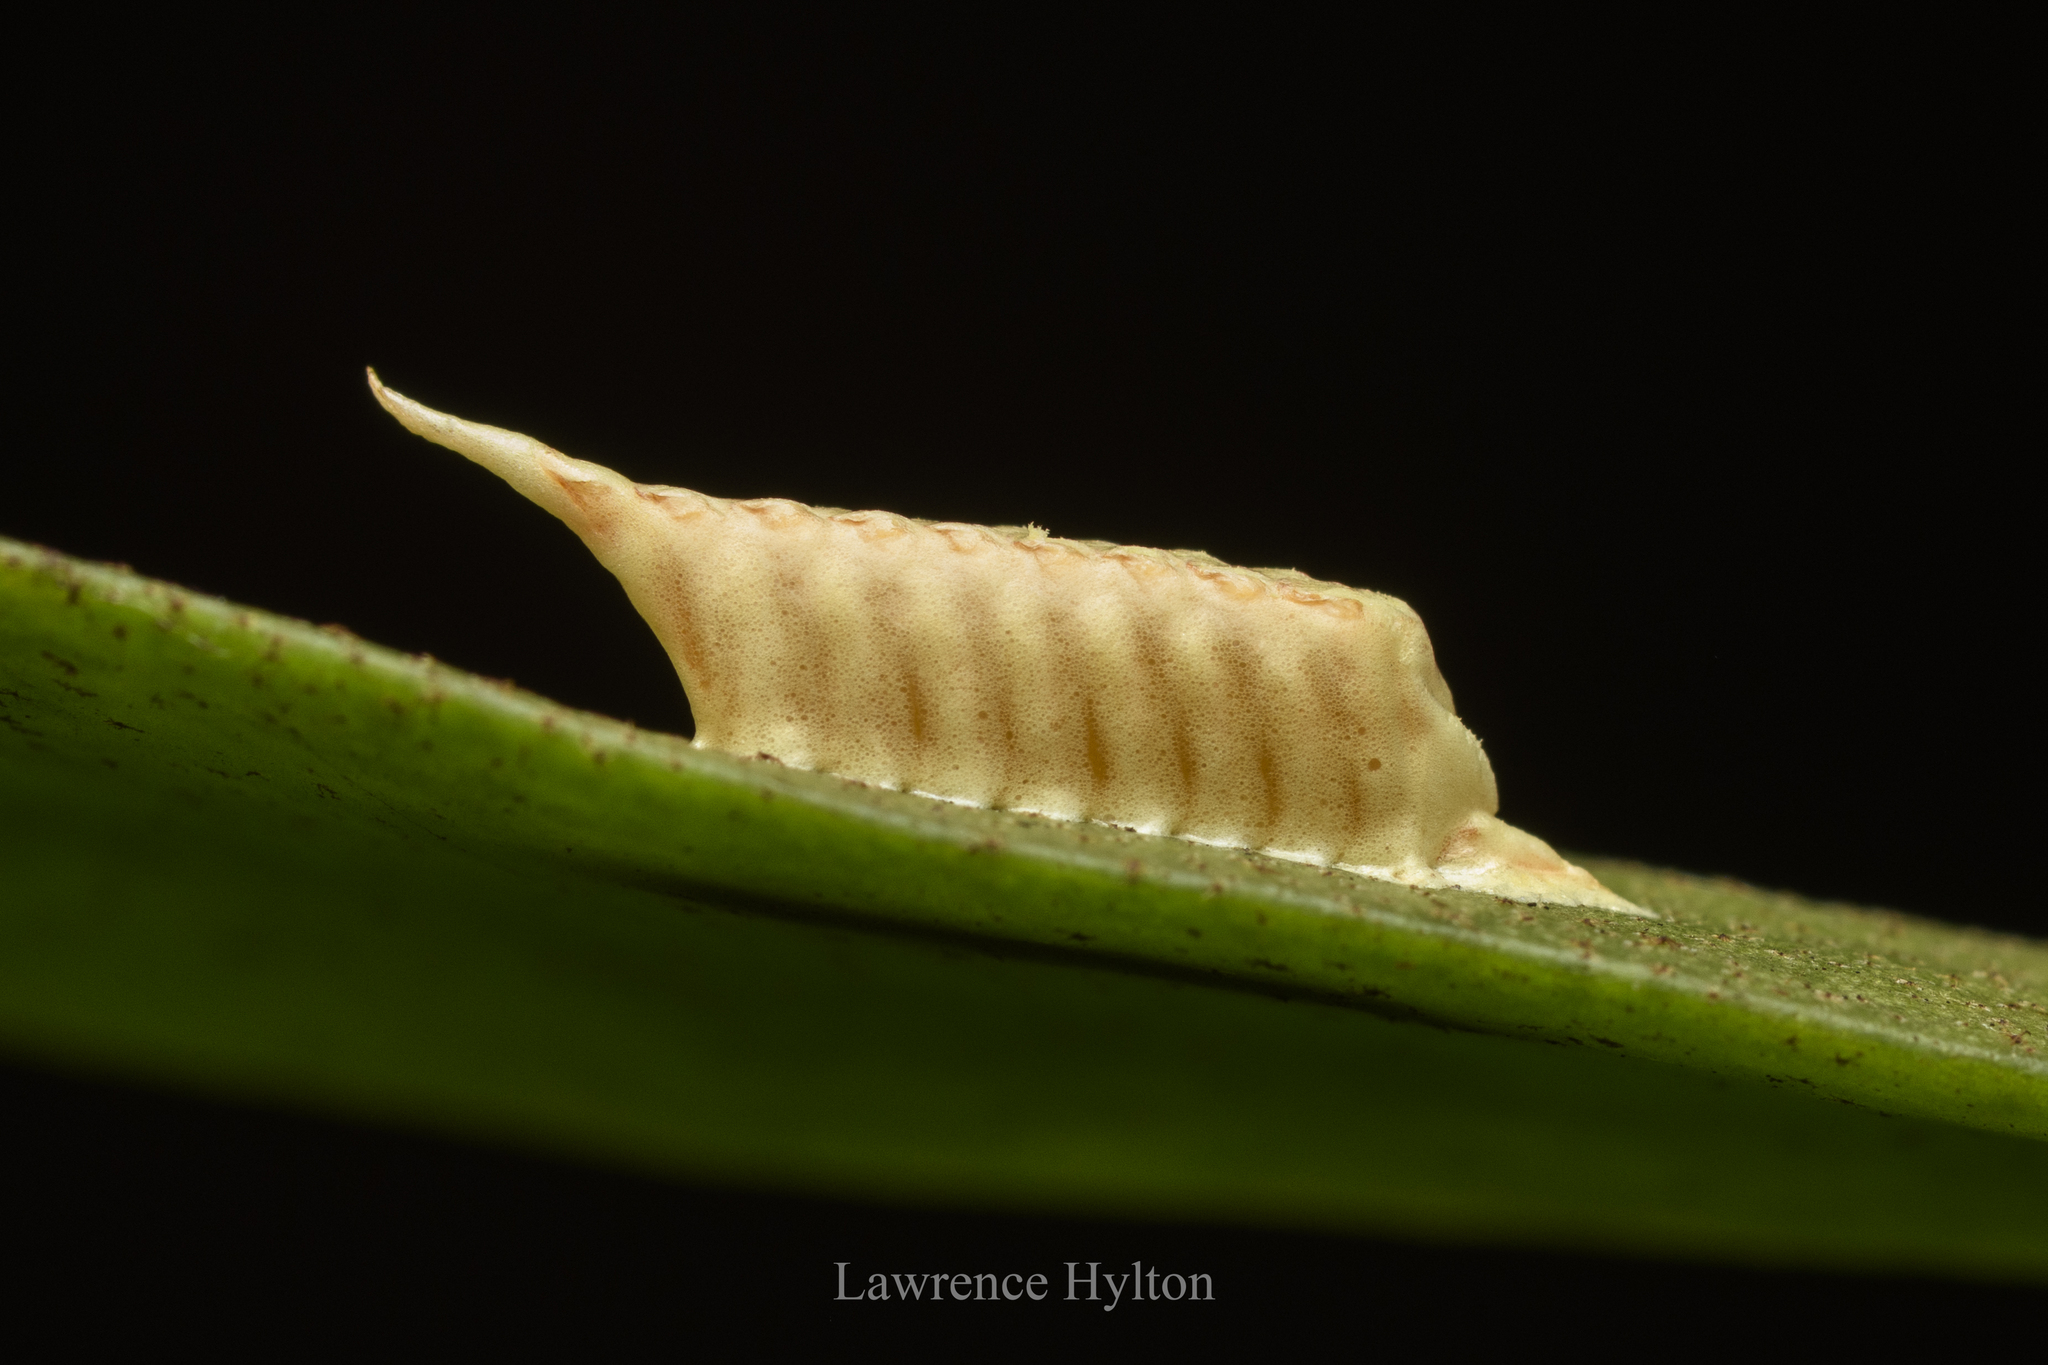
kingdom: Animalia
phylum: Arthropoda
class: Insecta
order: Mantodea
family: Nanomantidae
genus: Tropidomantis
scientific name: Tropidomantis gressitti
